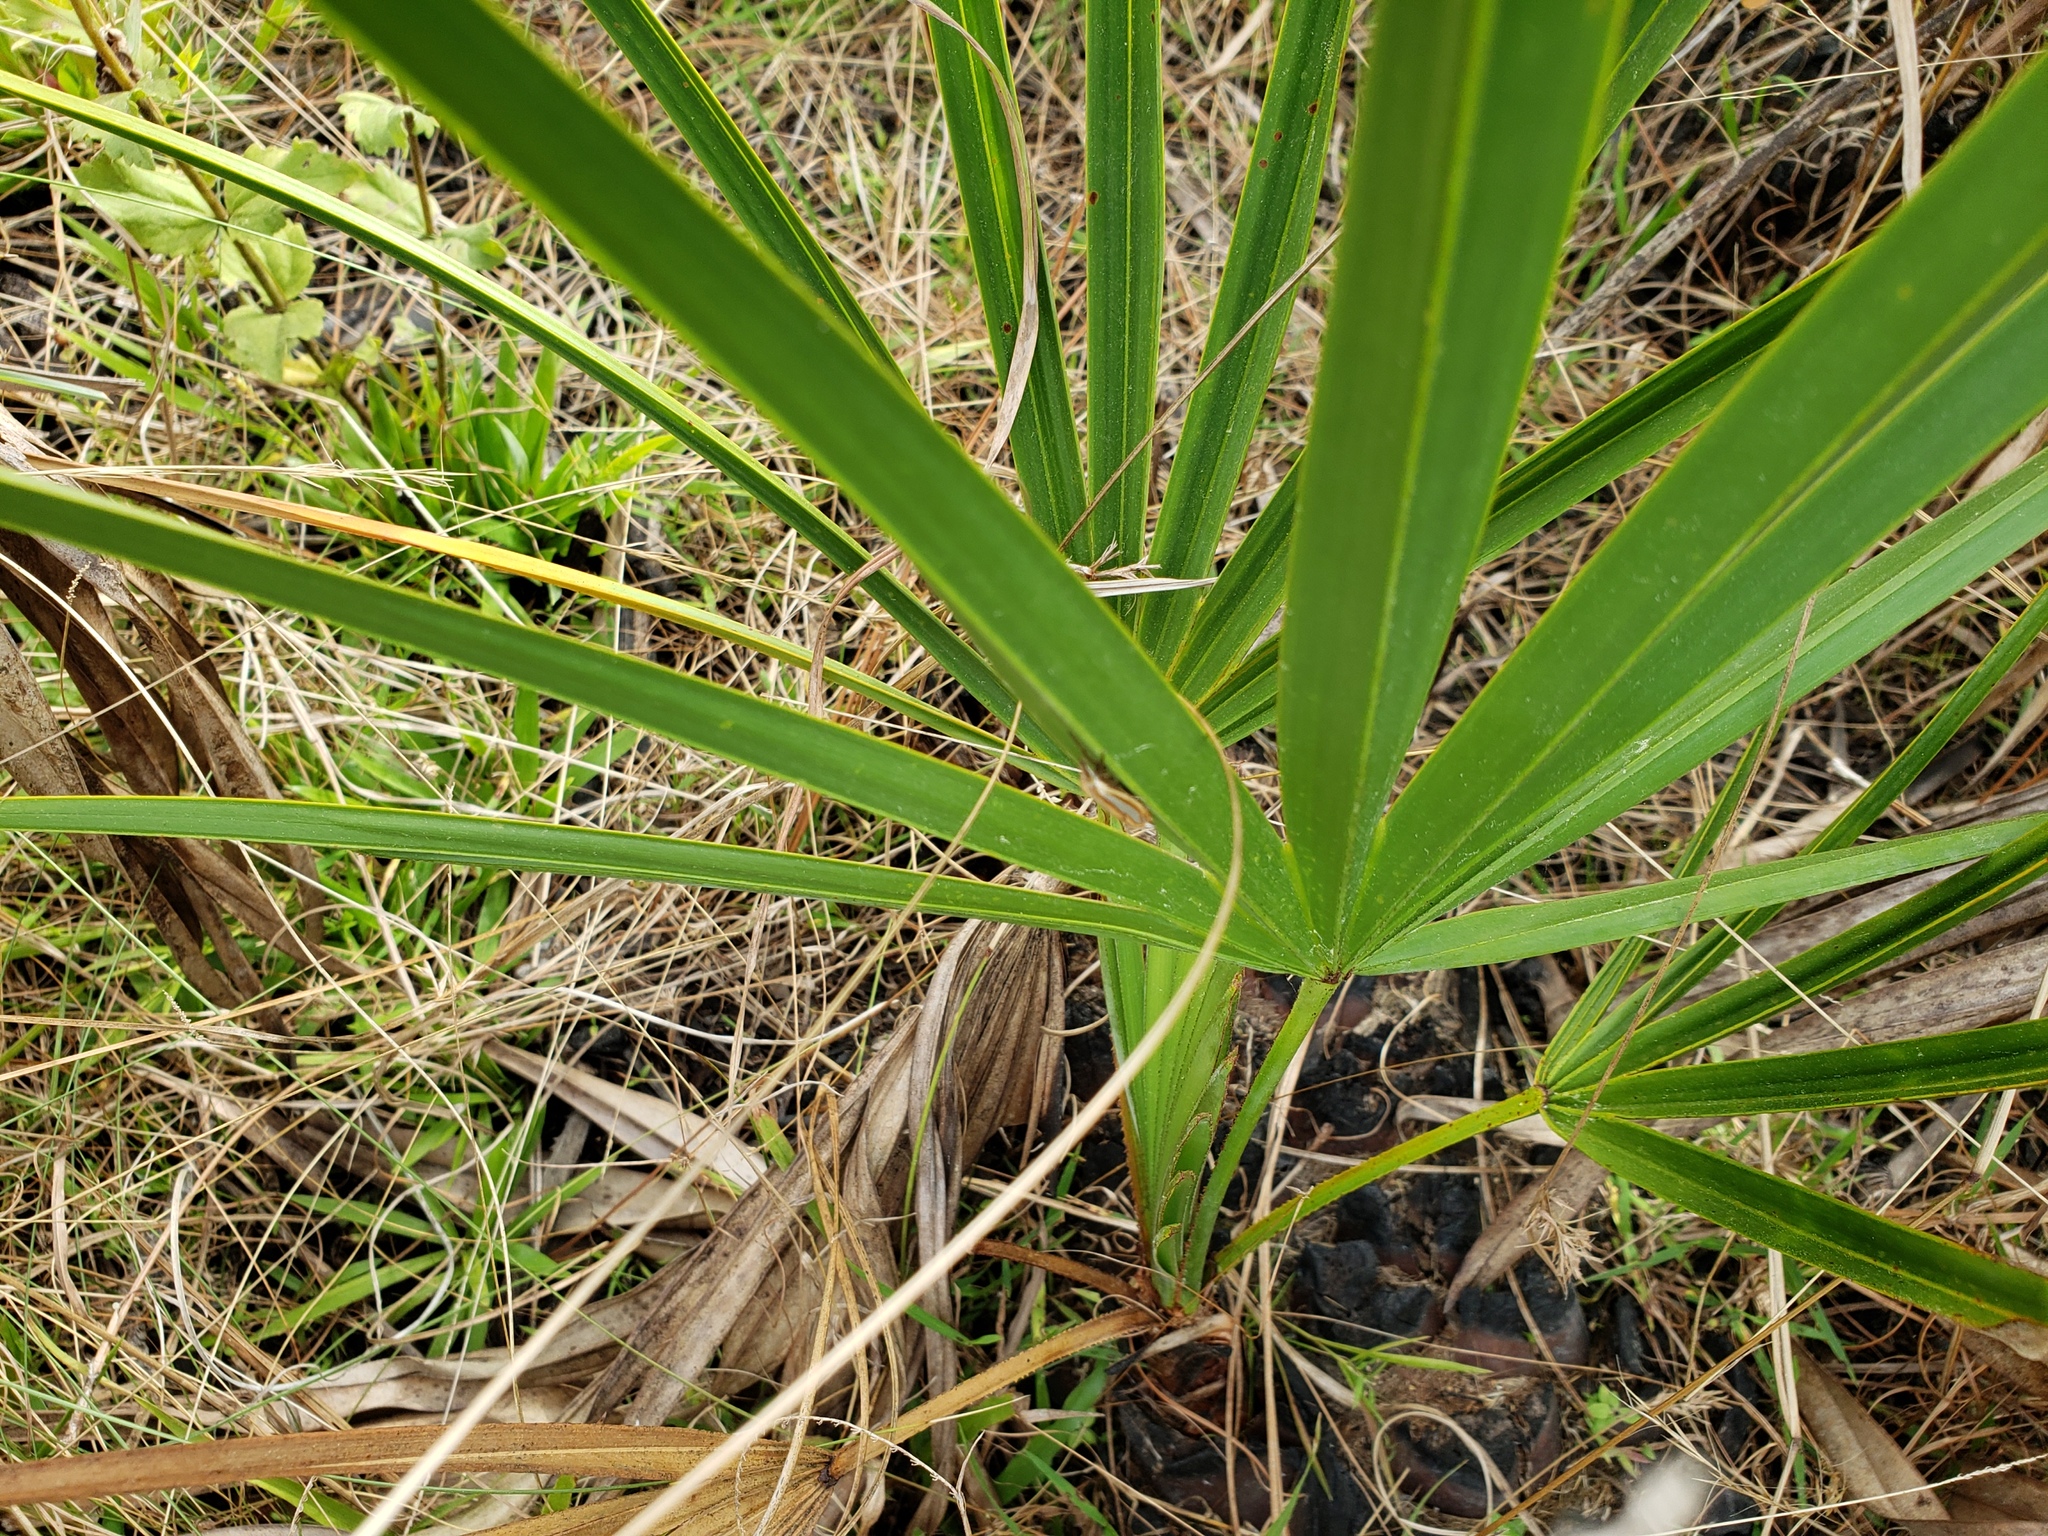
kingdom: Plantae
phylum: Tracheophyta
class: Liliopsida
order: Arecales
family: Arecaceae
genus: Serenoa
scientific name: Serenoa repens
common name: Saw-palmetto
